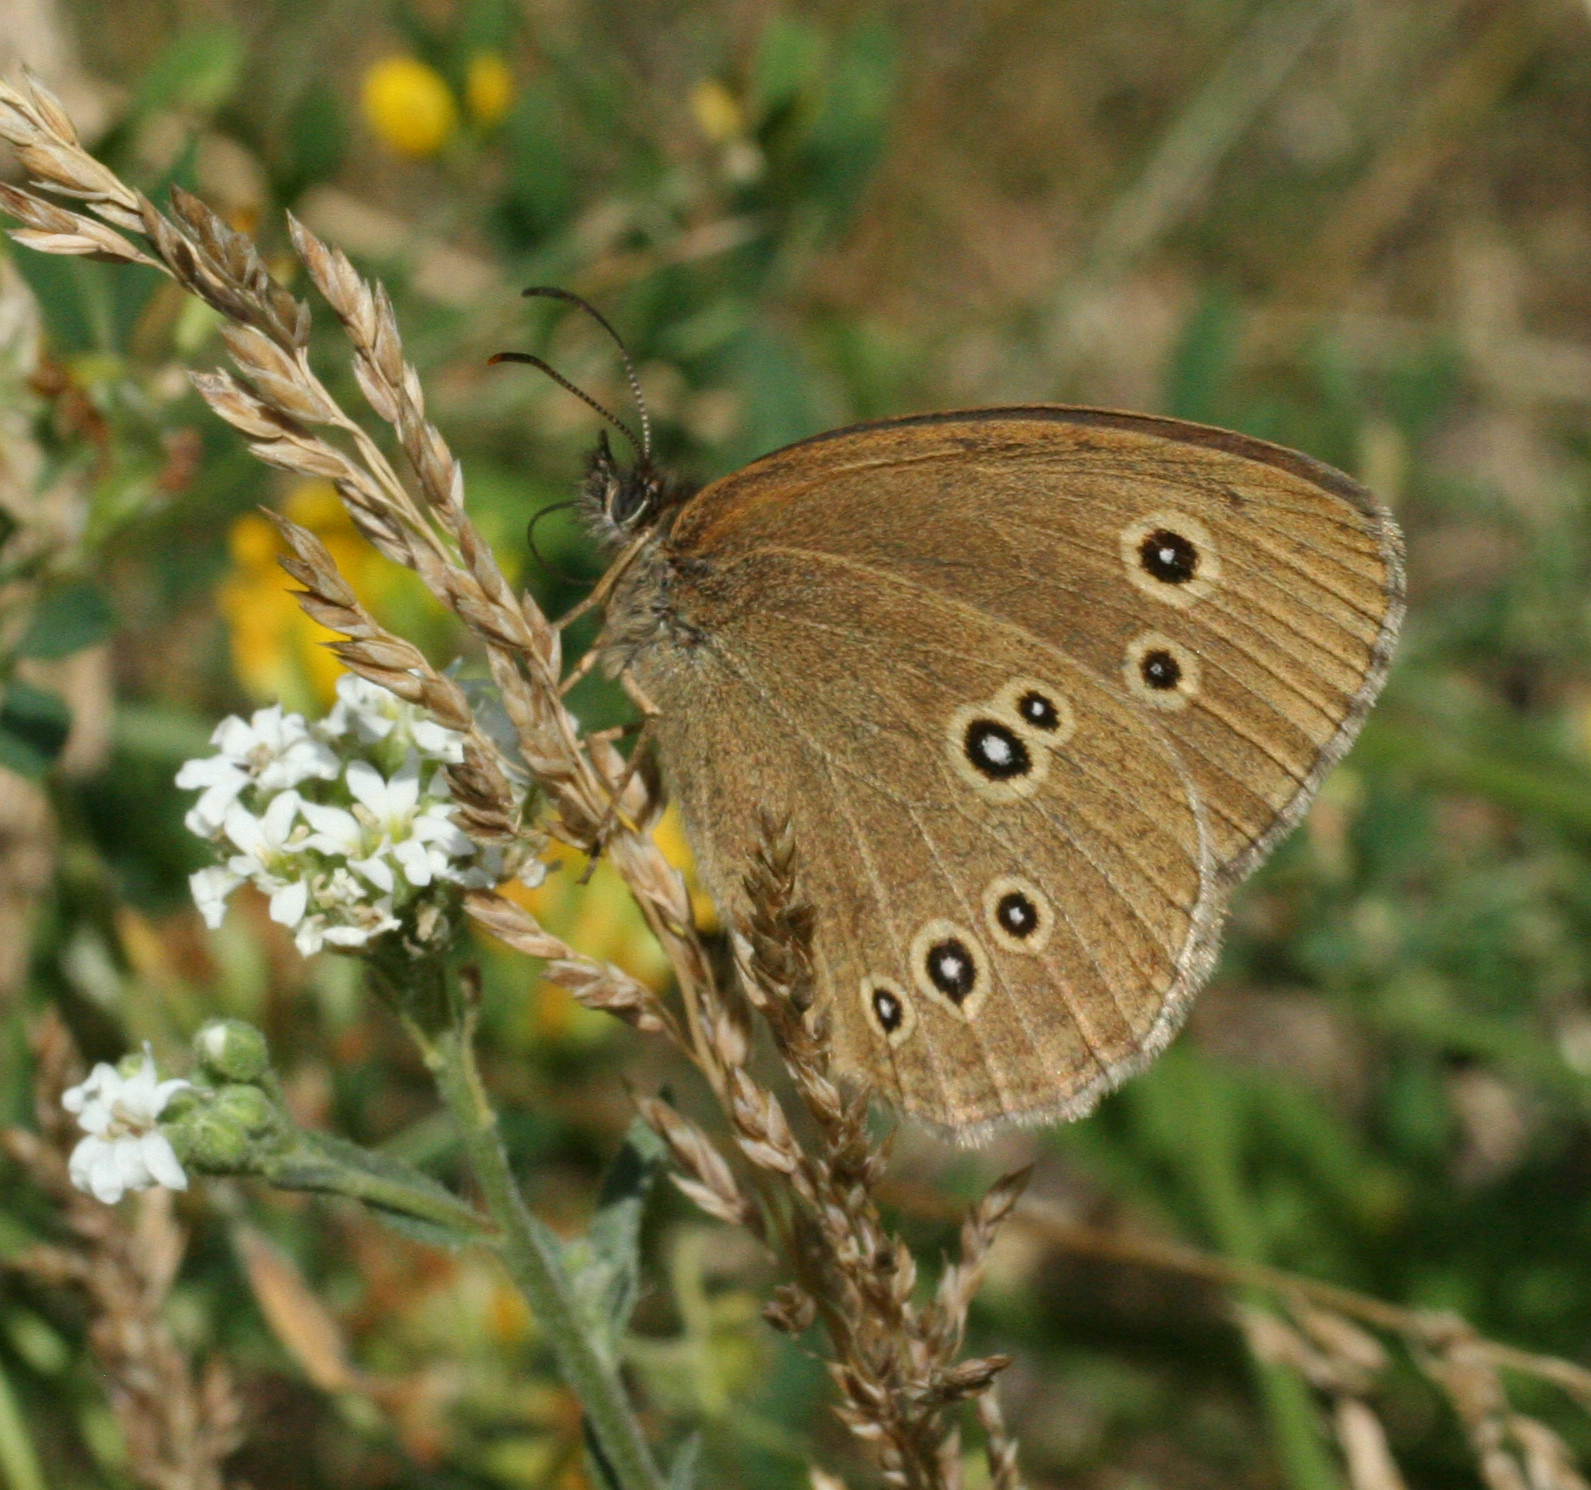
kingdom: Animalia
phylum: Arthropoda
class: Insecta
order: Lepidoptera
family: Nymphalidae
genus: Aphantopus
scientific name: Aphantopus hyperantus
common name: Ringlet
